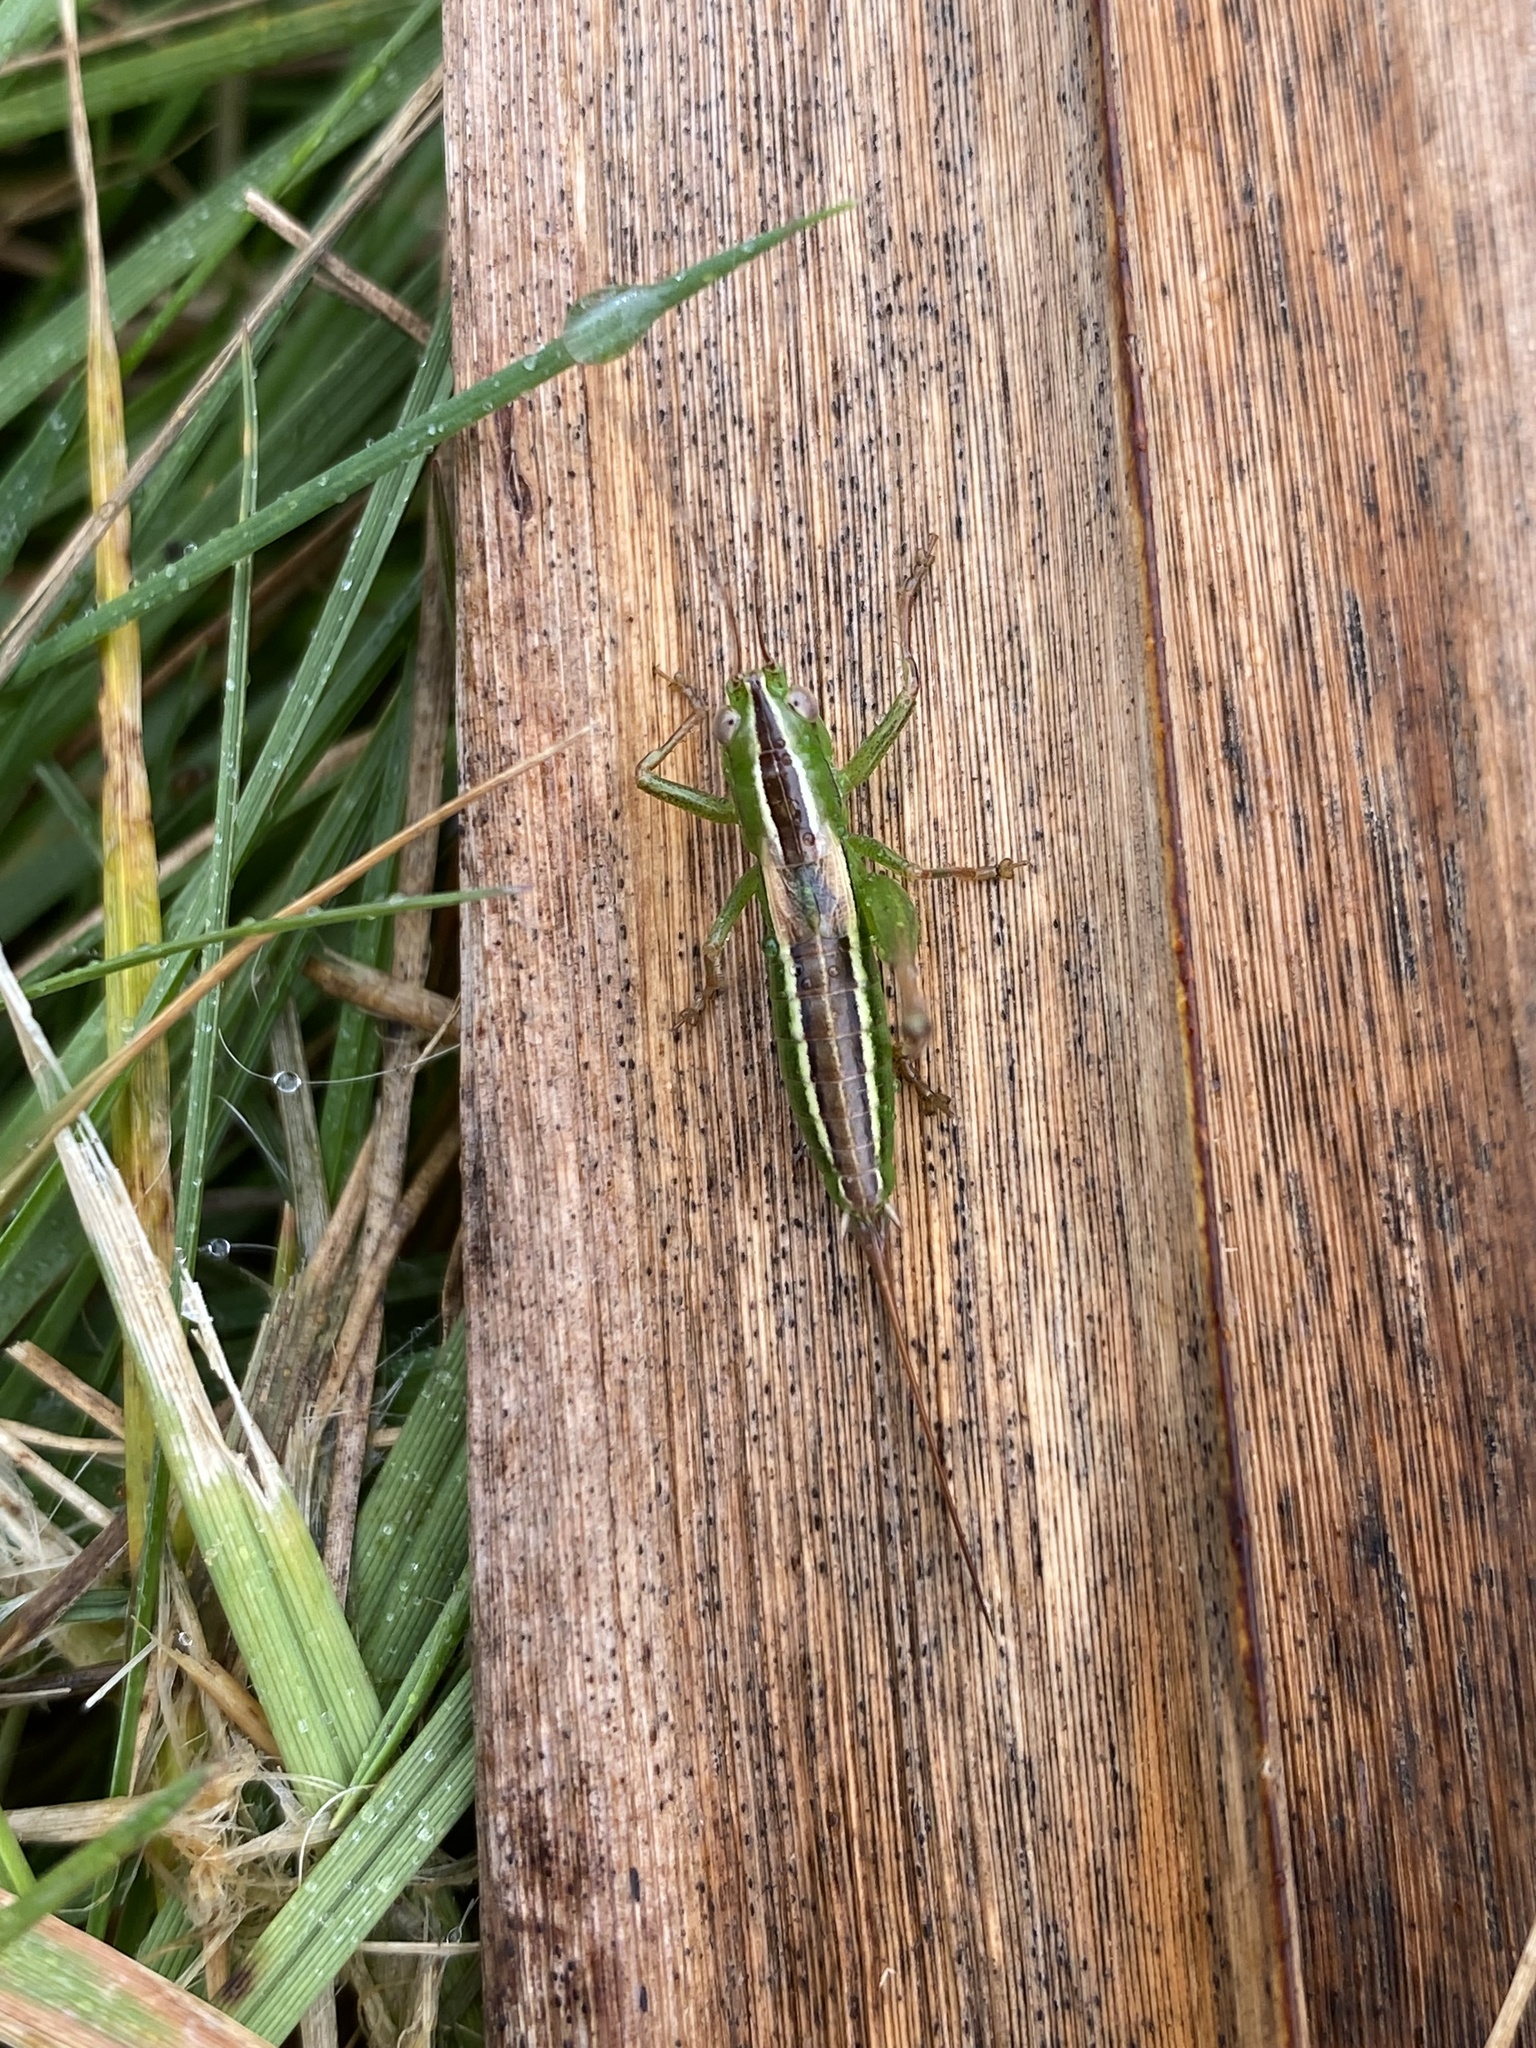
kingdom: Animalia
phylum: Arthropoda
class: Insecta
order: Orthoptera
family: Tettigoniidae
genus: Conocephalus
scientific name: Conocephalus bilineatus
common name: Small meadow katydid
